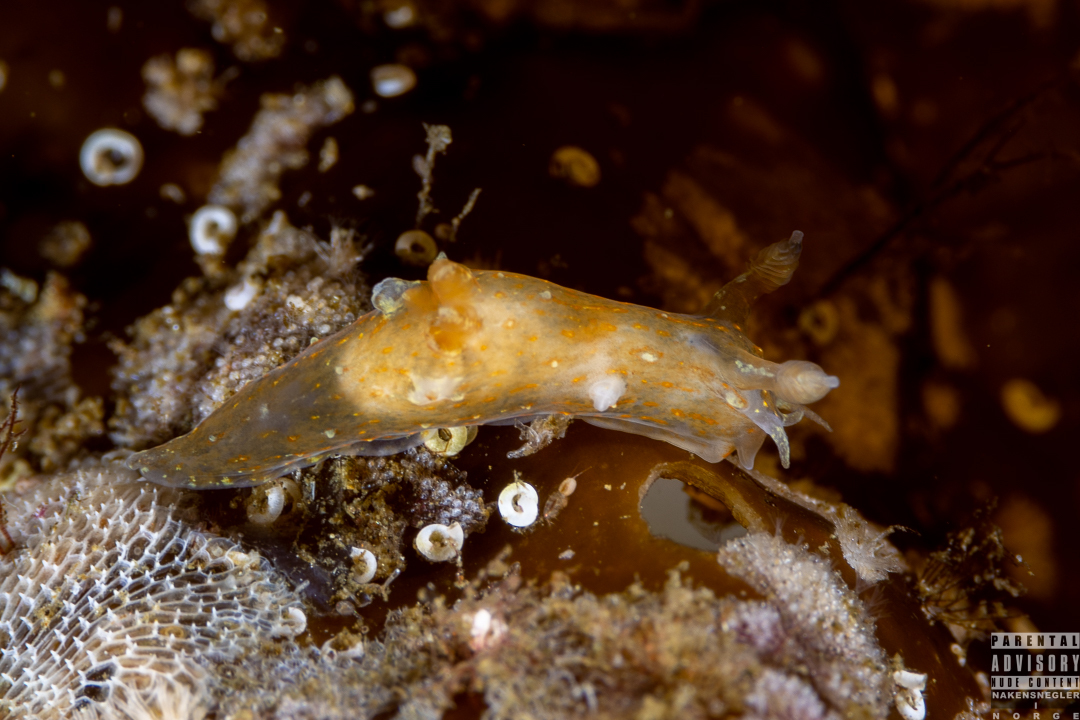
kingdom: Animalia
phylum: Mollusca
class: Gastropoda
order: Nudibranchia
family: Polyceridae
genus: Polycera
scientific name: Polycera quadrilineata
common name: Four-striped polycera
